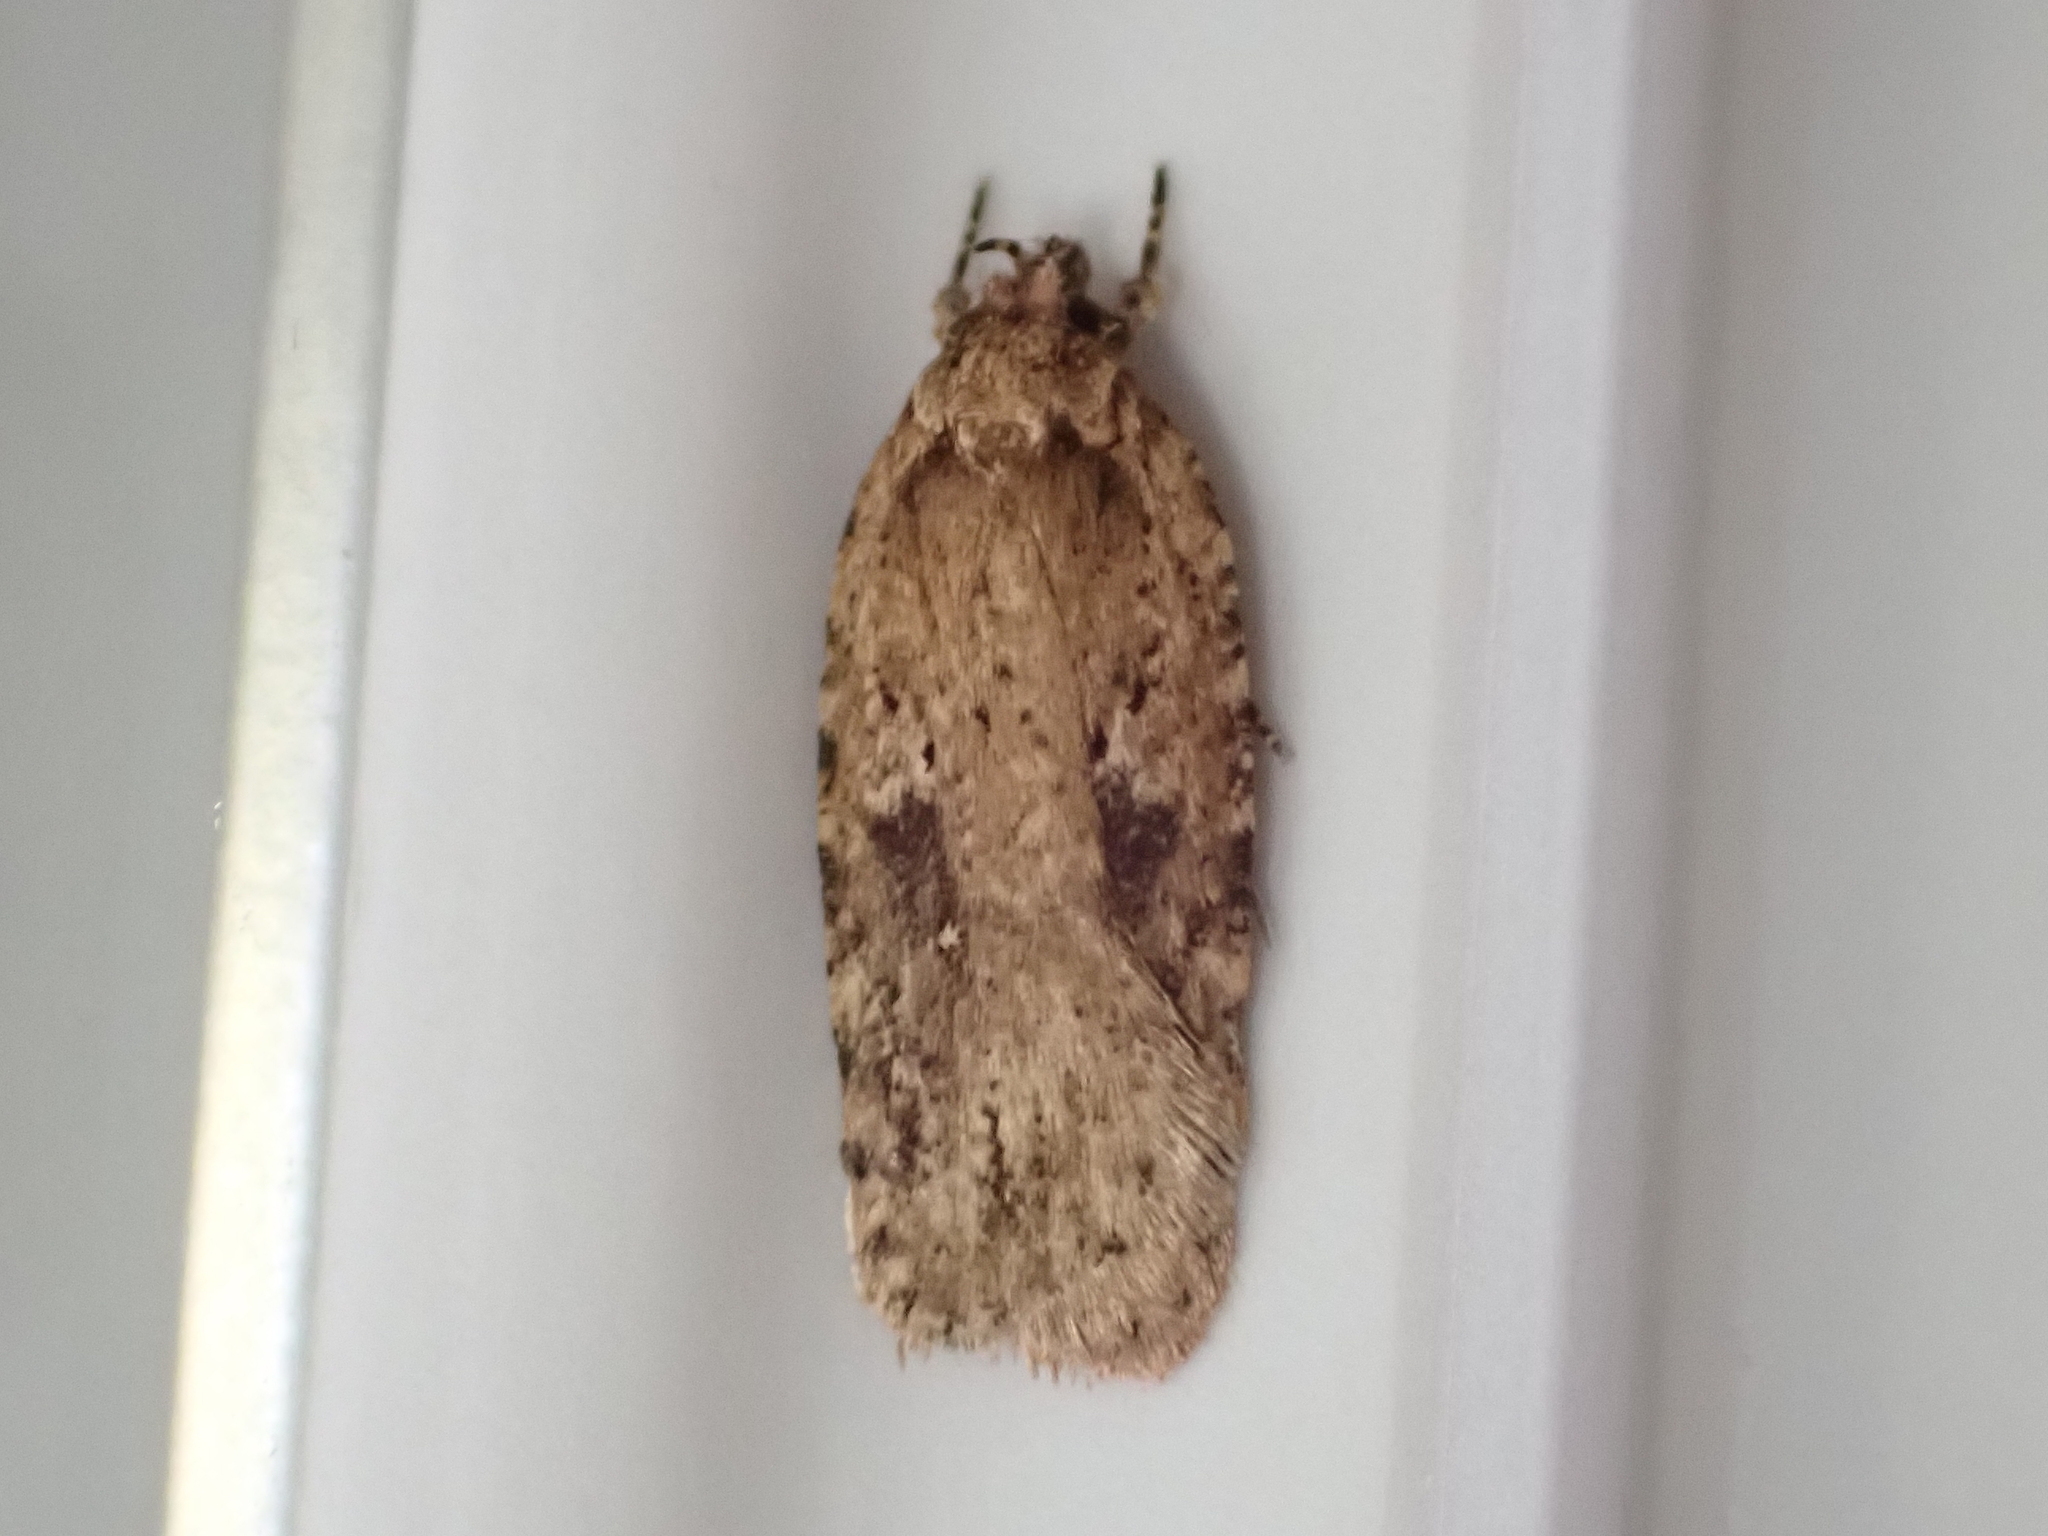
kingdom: Animalia
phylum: Arthropoda
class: Insecta
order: Lepidoptera
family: Depressariidae
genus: Agonopterix
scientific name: Agonopterix pulvipennella
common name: Goldenrod leafffolder
